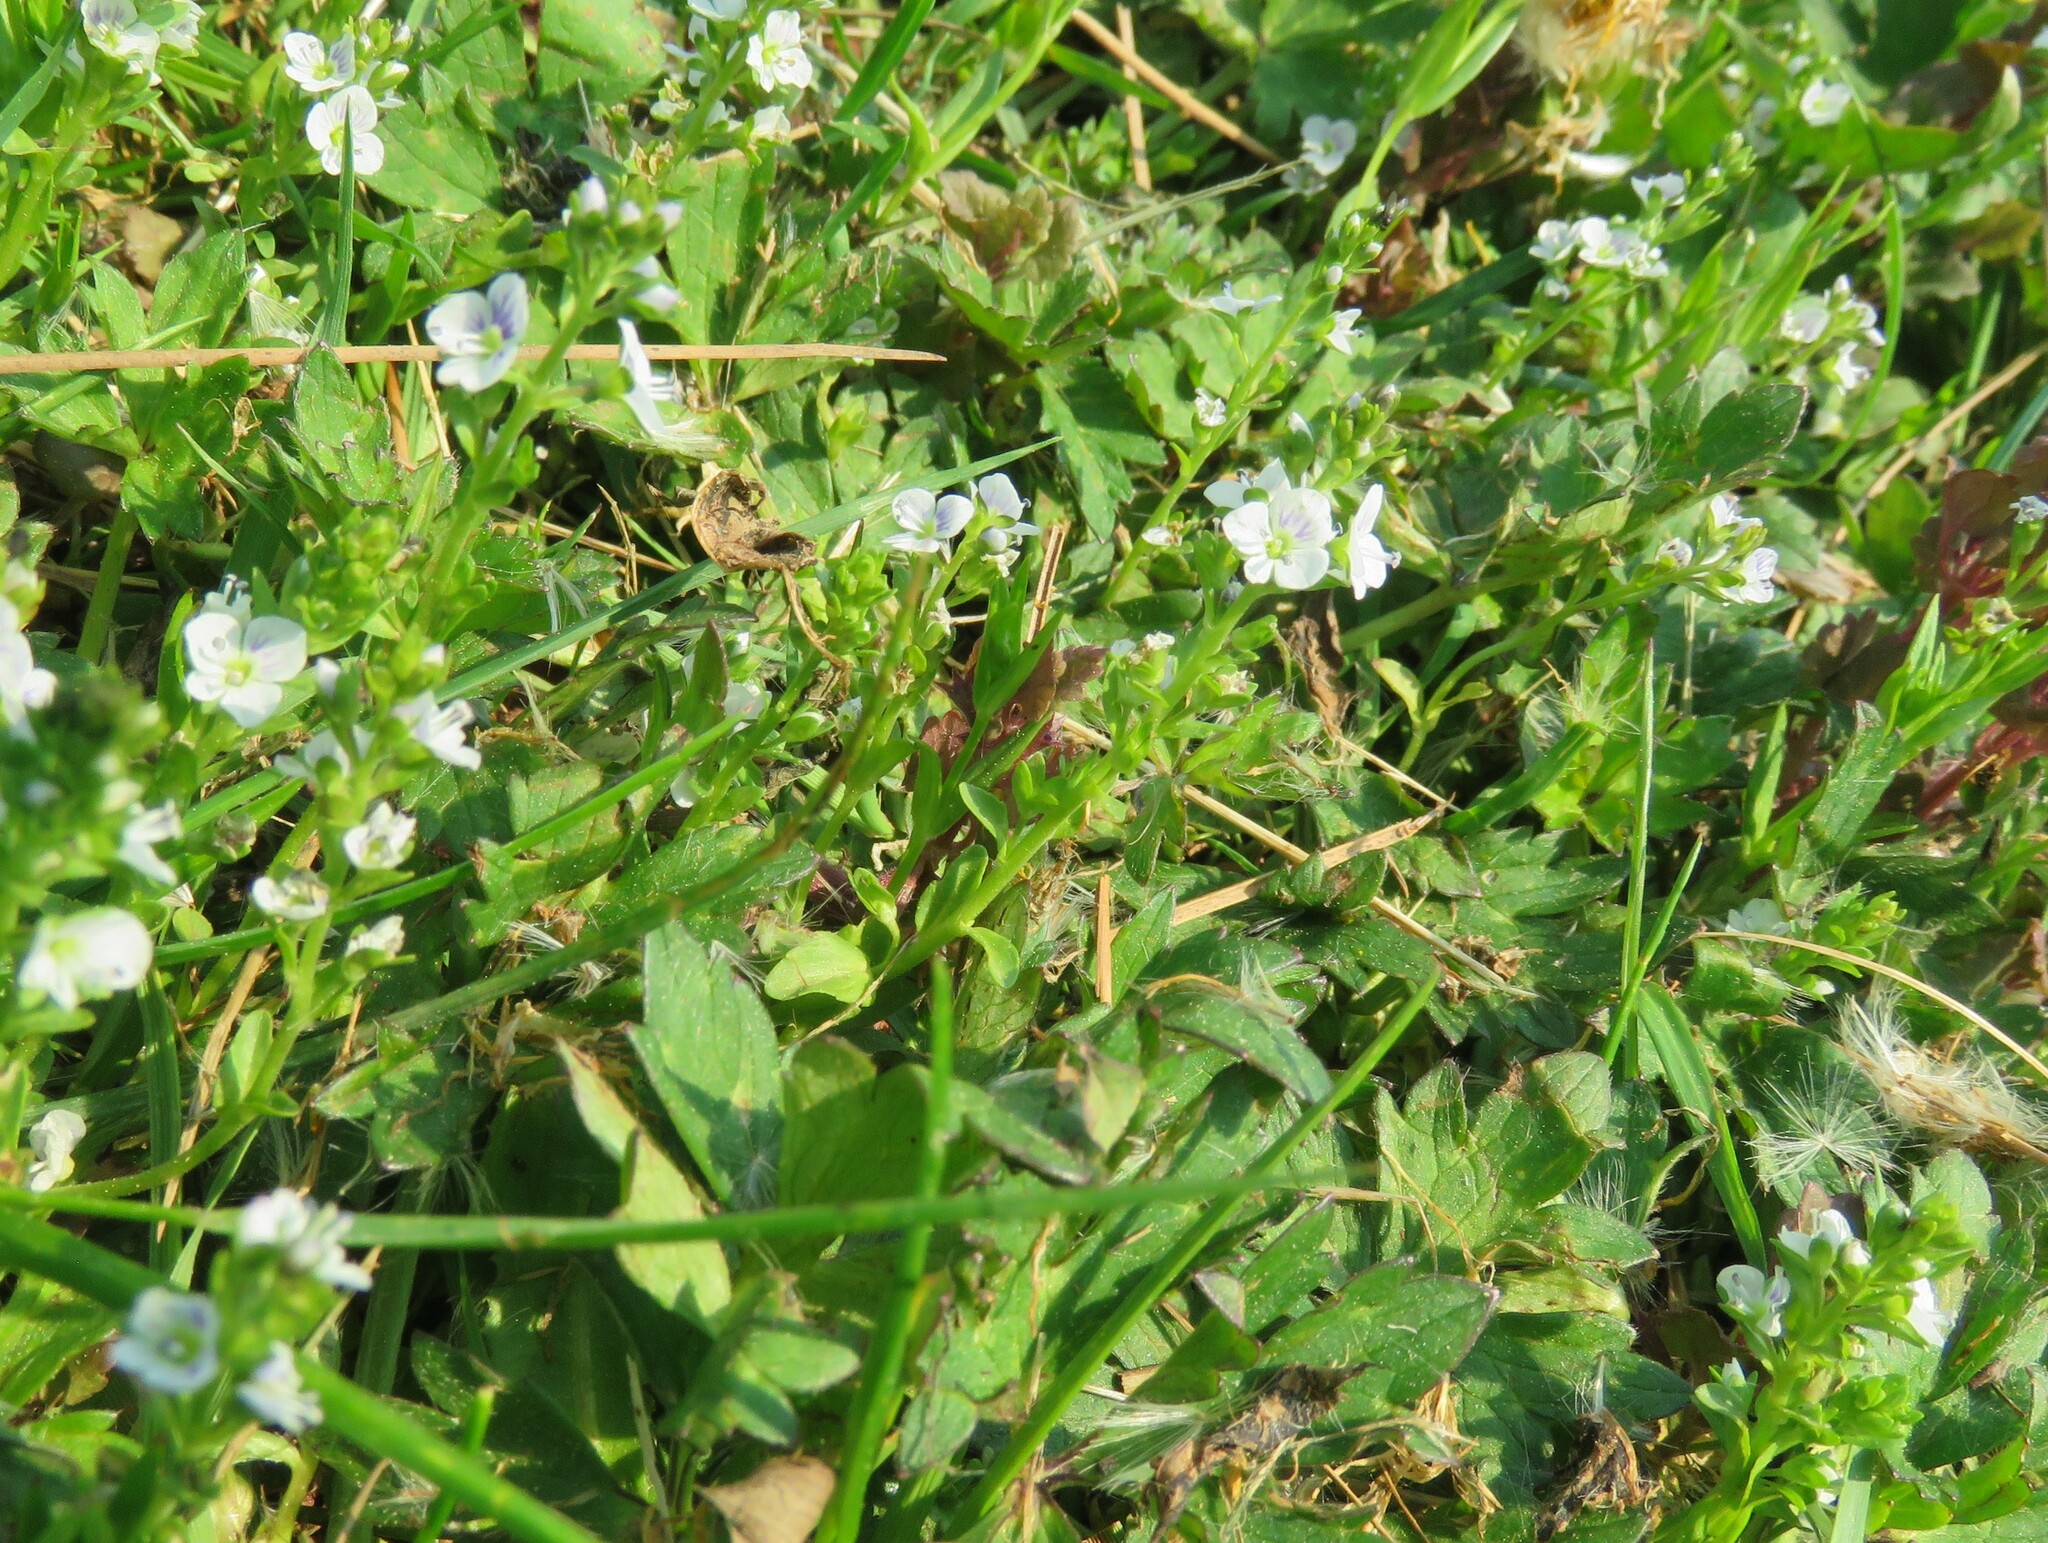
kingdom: Plantae
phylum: Tracheophyta
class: Magnoliopsida
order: Lamiales
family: Plantaginaceae
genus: Veronica
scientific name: Veronica serpyllifolia
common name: Thyme-leaved speedwell
